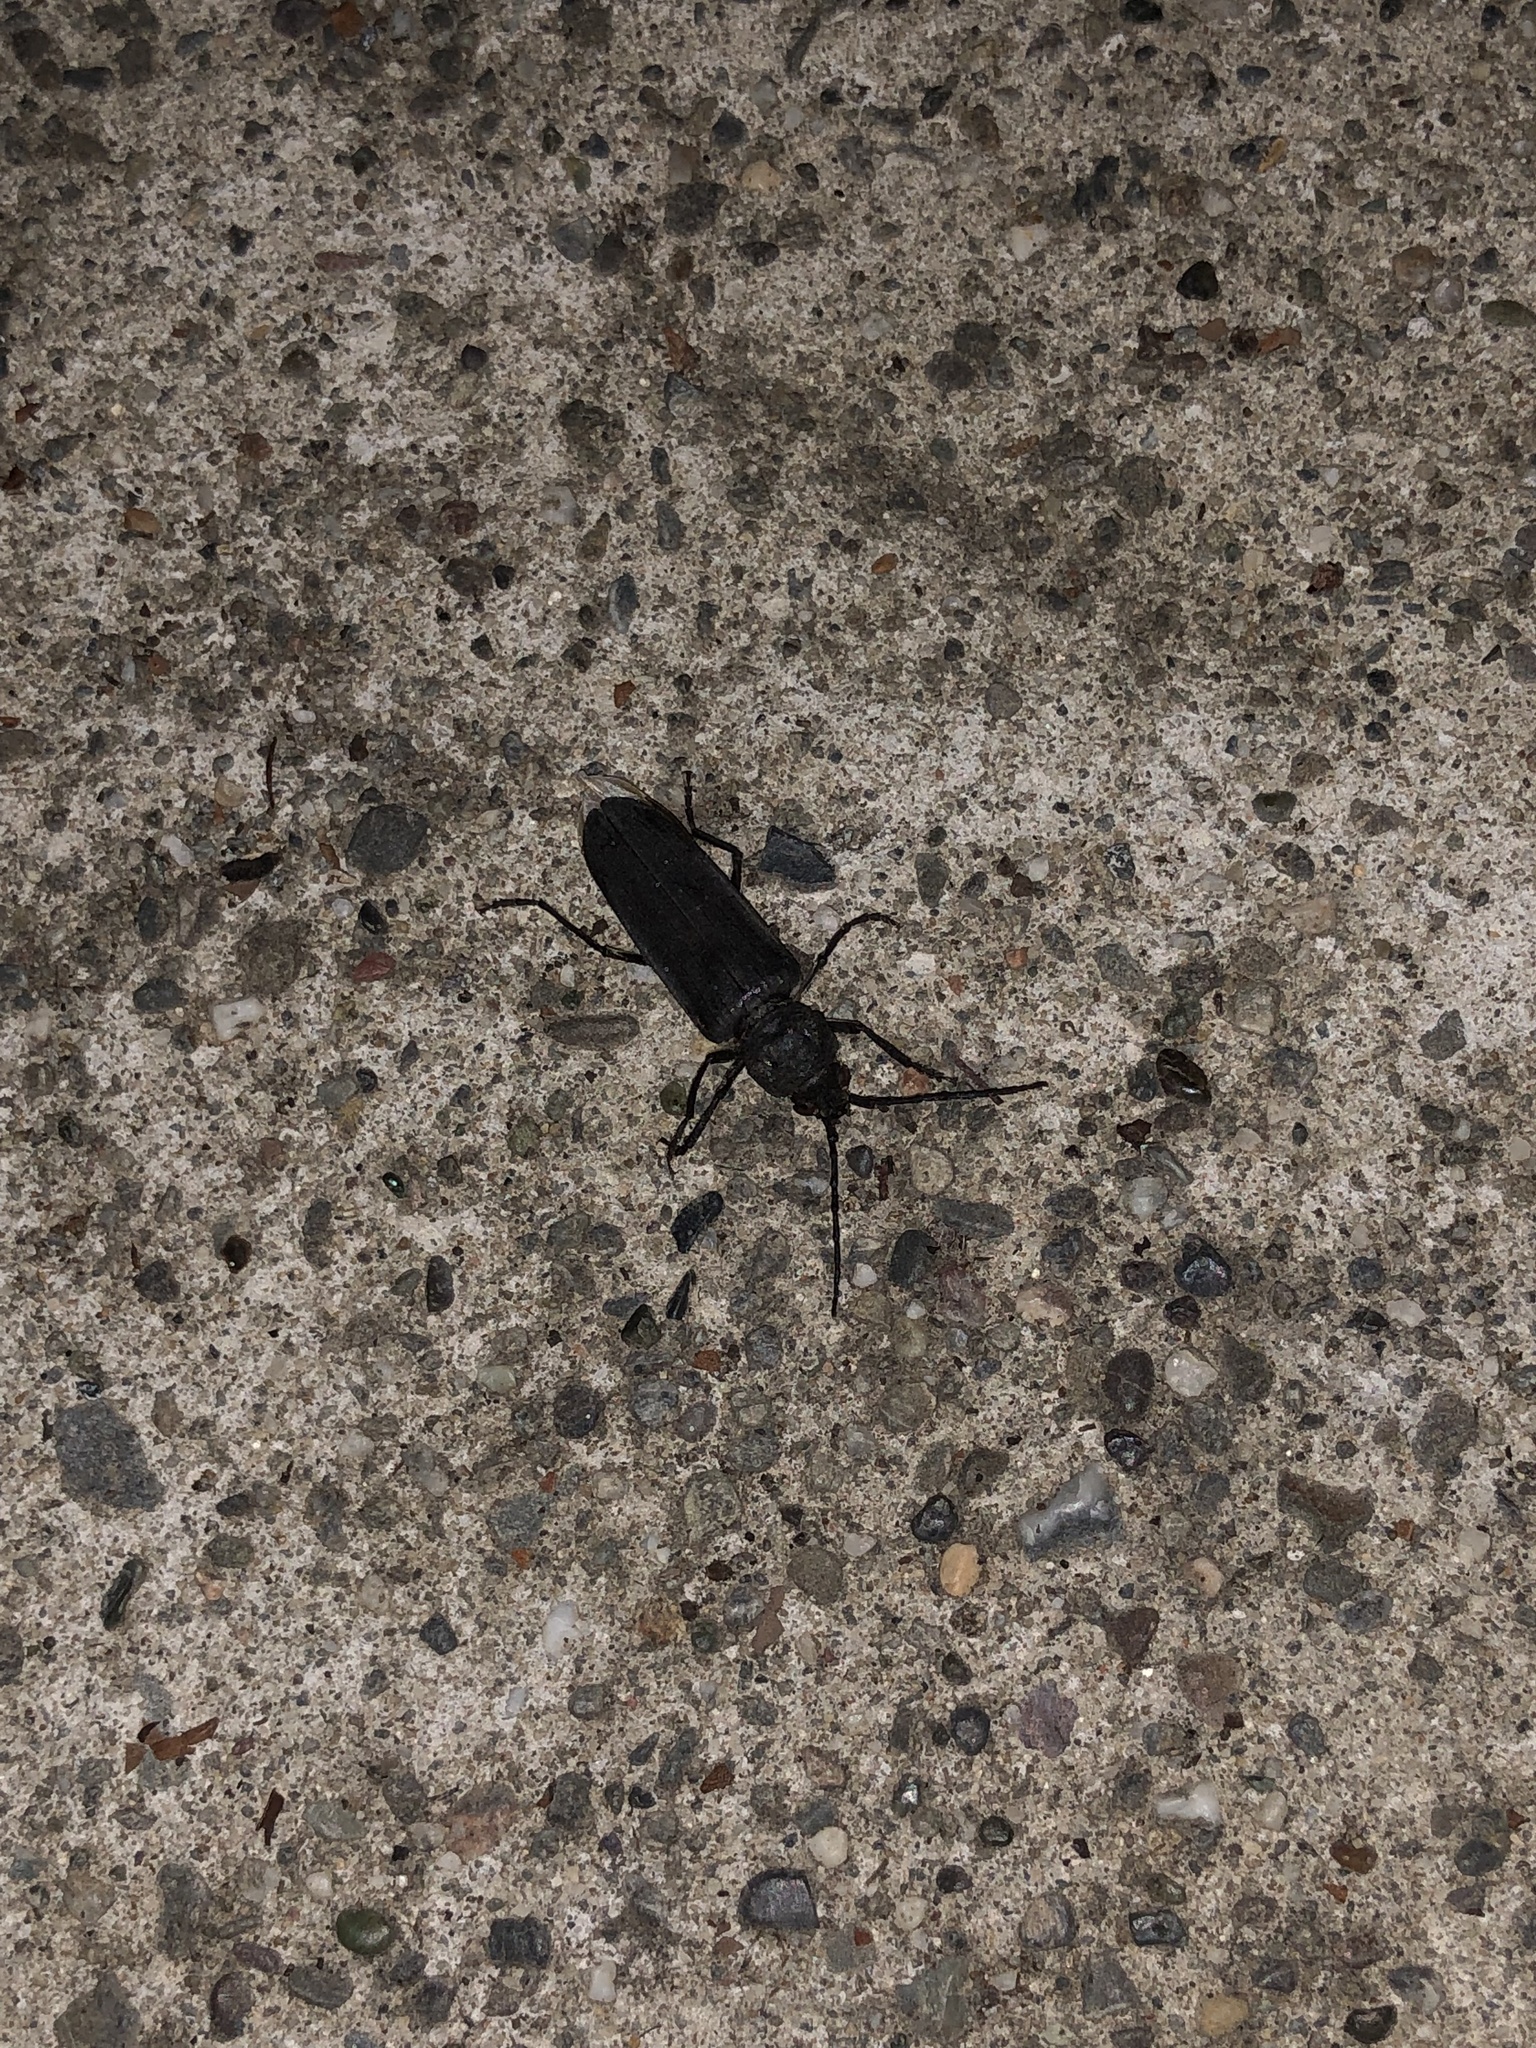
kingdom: Animalia
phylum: Arthropoda
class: Insecta
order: Coleoptera
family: Cerambycidae
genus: Arhopalus
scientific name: Arhopalus asperatus
